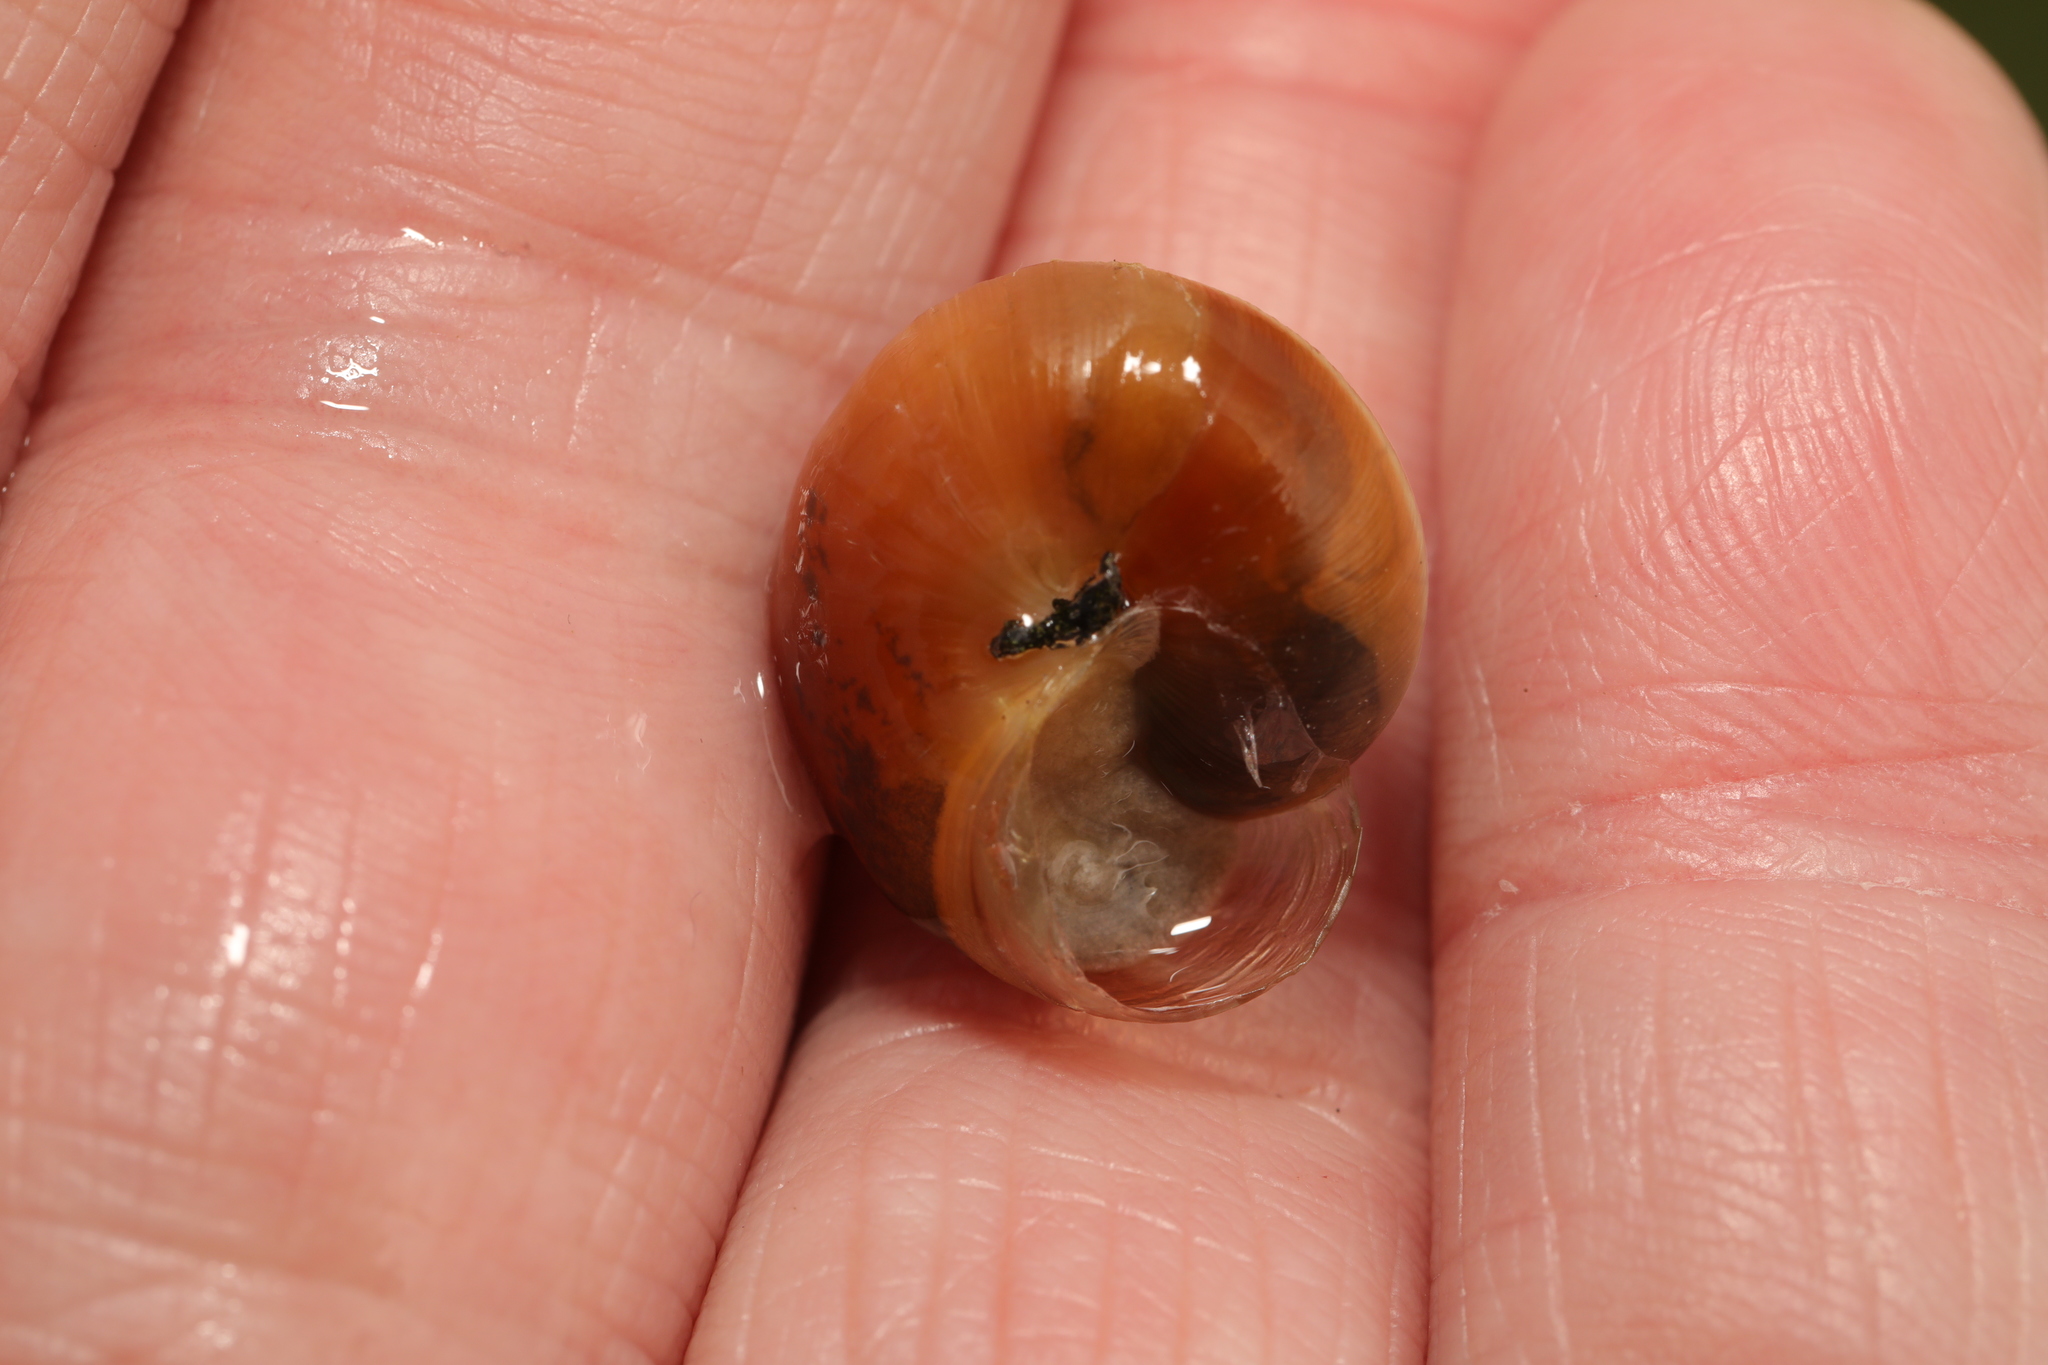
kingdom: Animalia
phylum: Mollusca
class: Gastropoda
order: Stylommatophora
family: Hygromiidae
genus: Monacha
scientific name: Monacha cantiana
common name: Kentish snail
